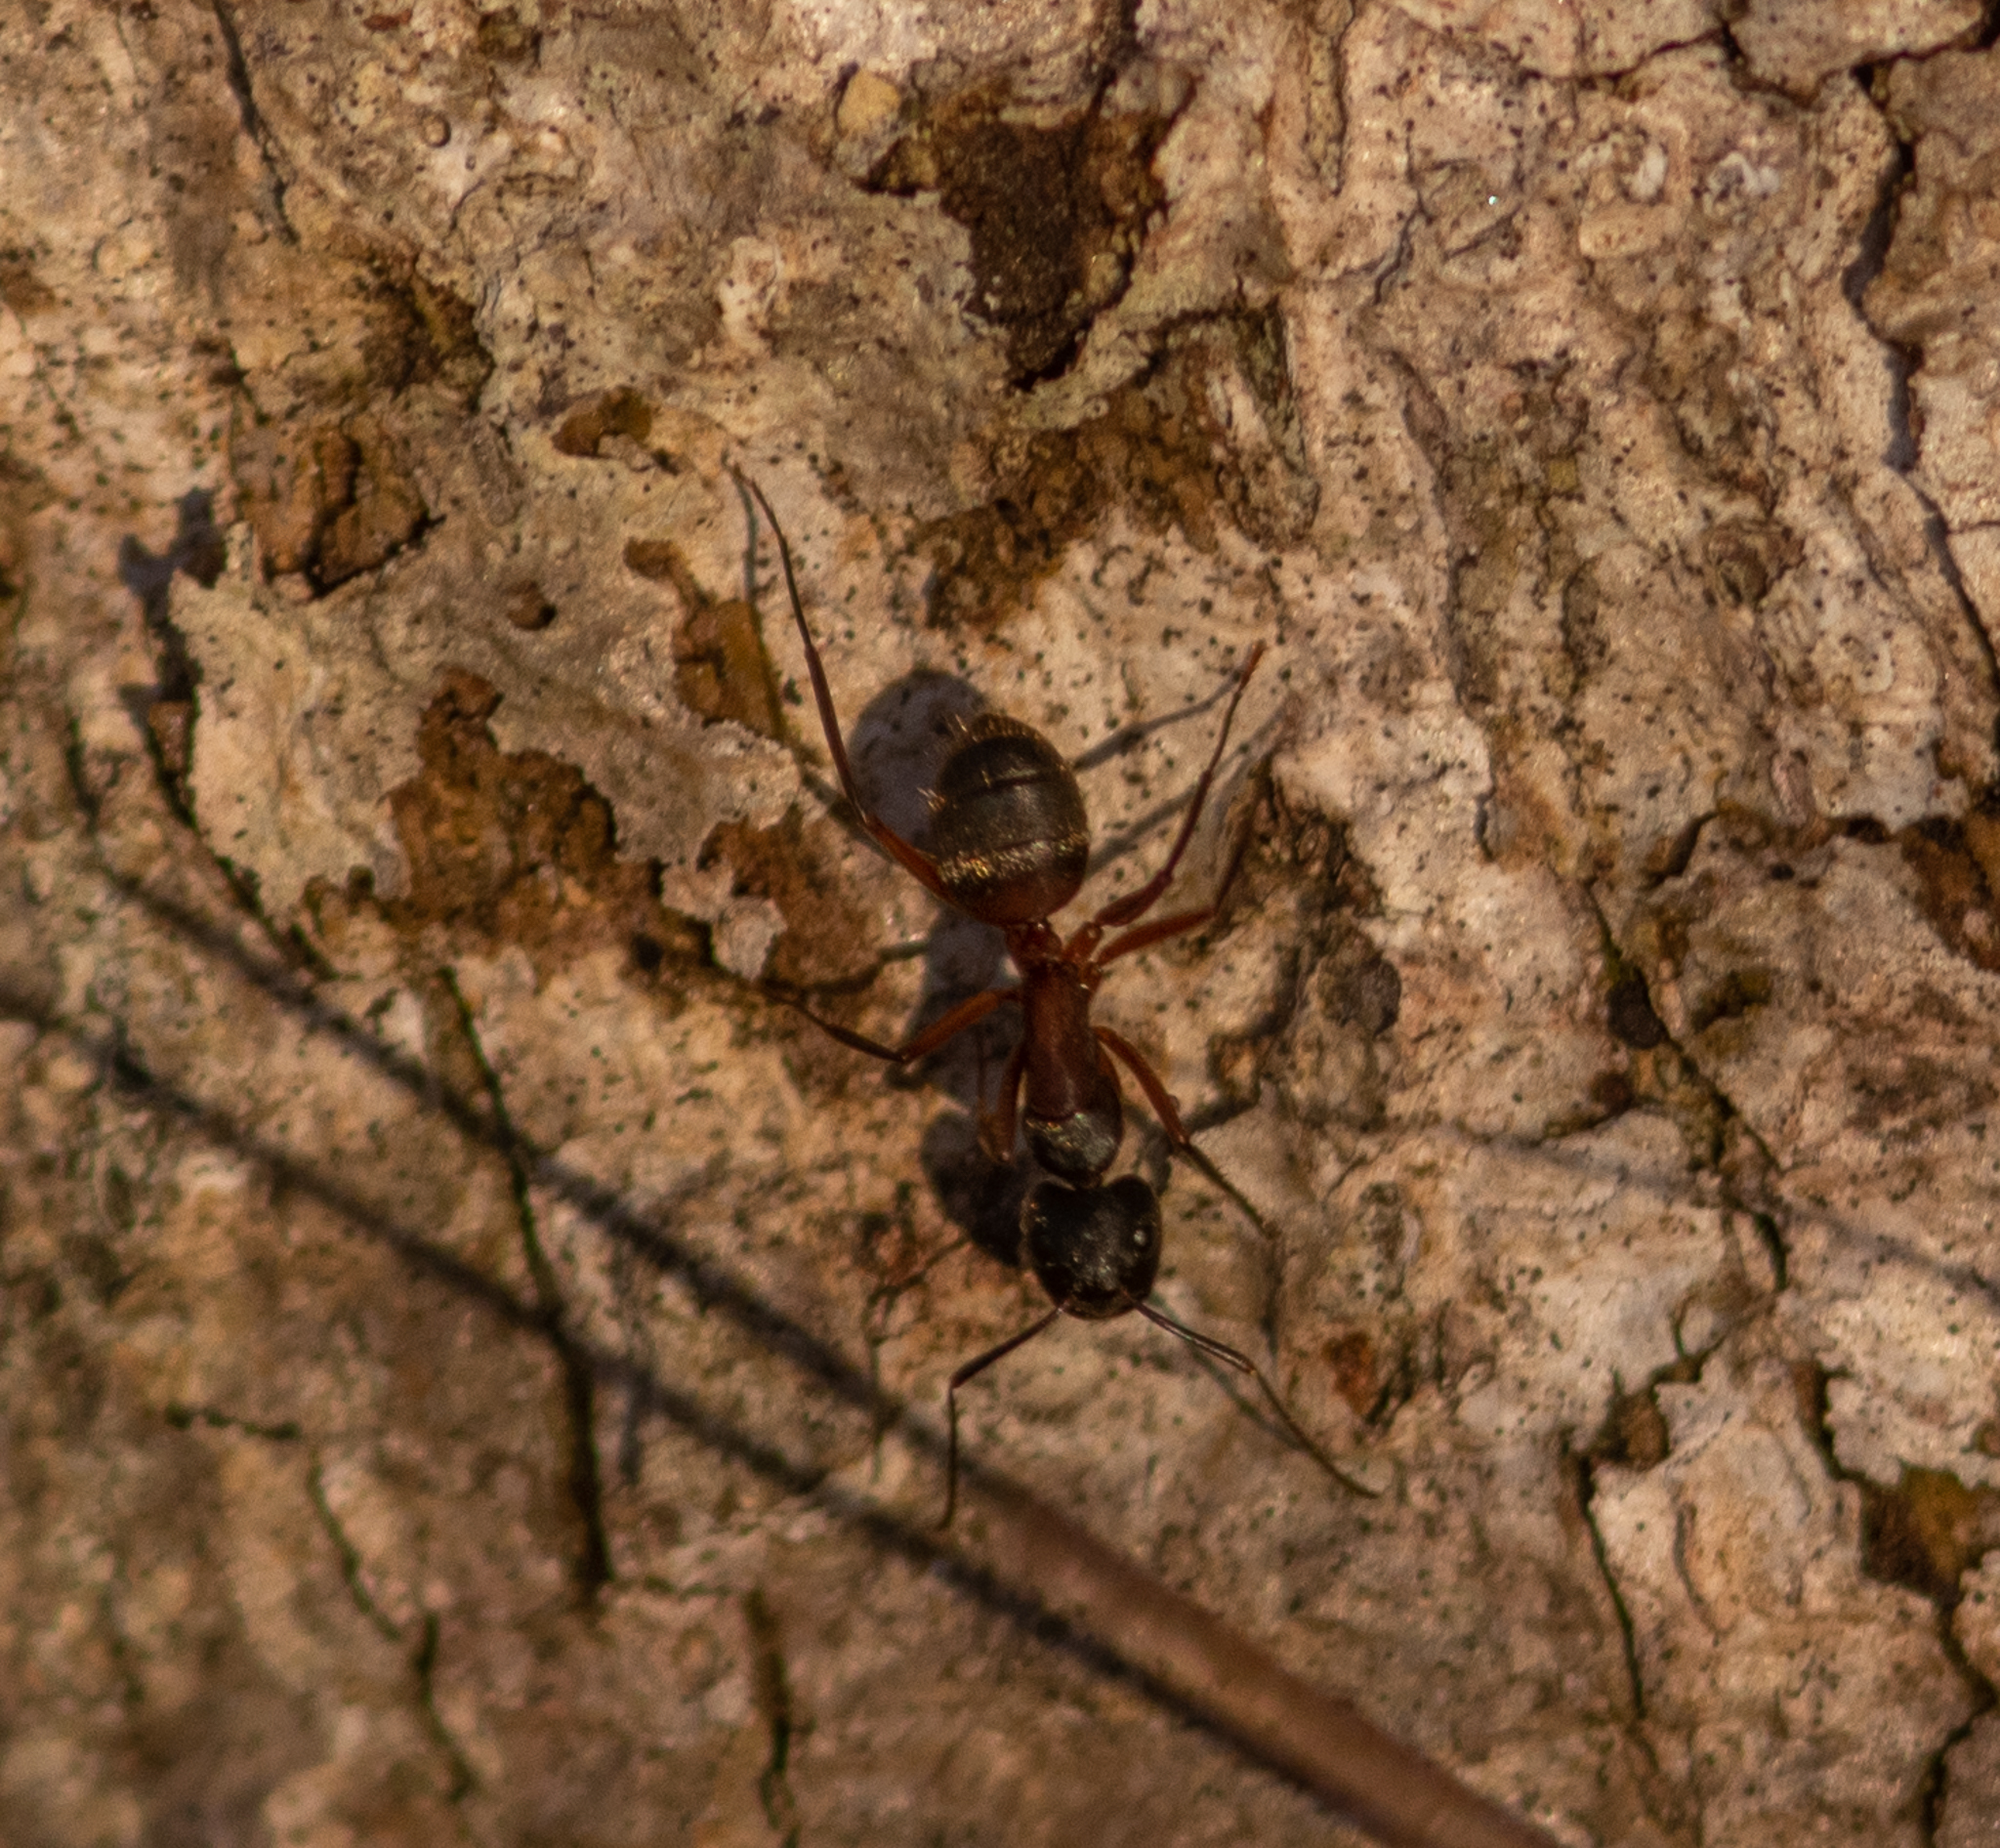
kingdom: Animalia
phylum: Arthropoda
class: Insecta
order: Hymenoptera
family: Formicidae
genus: Camponotus
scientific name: Camponotus chromaiodes
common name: Red carpenter ant
